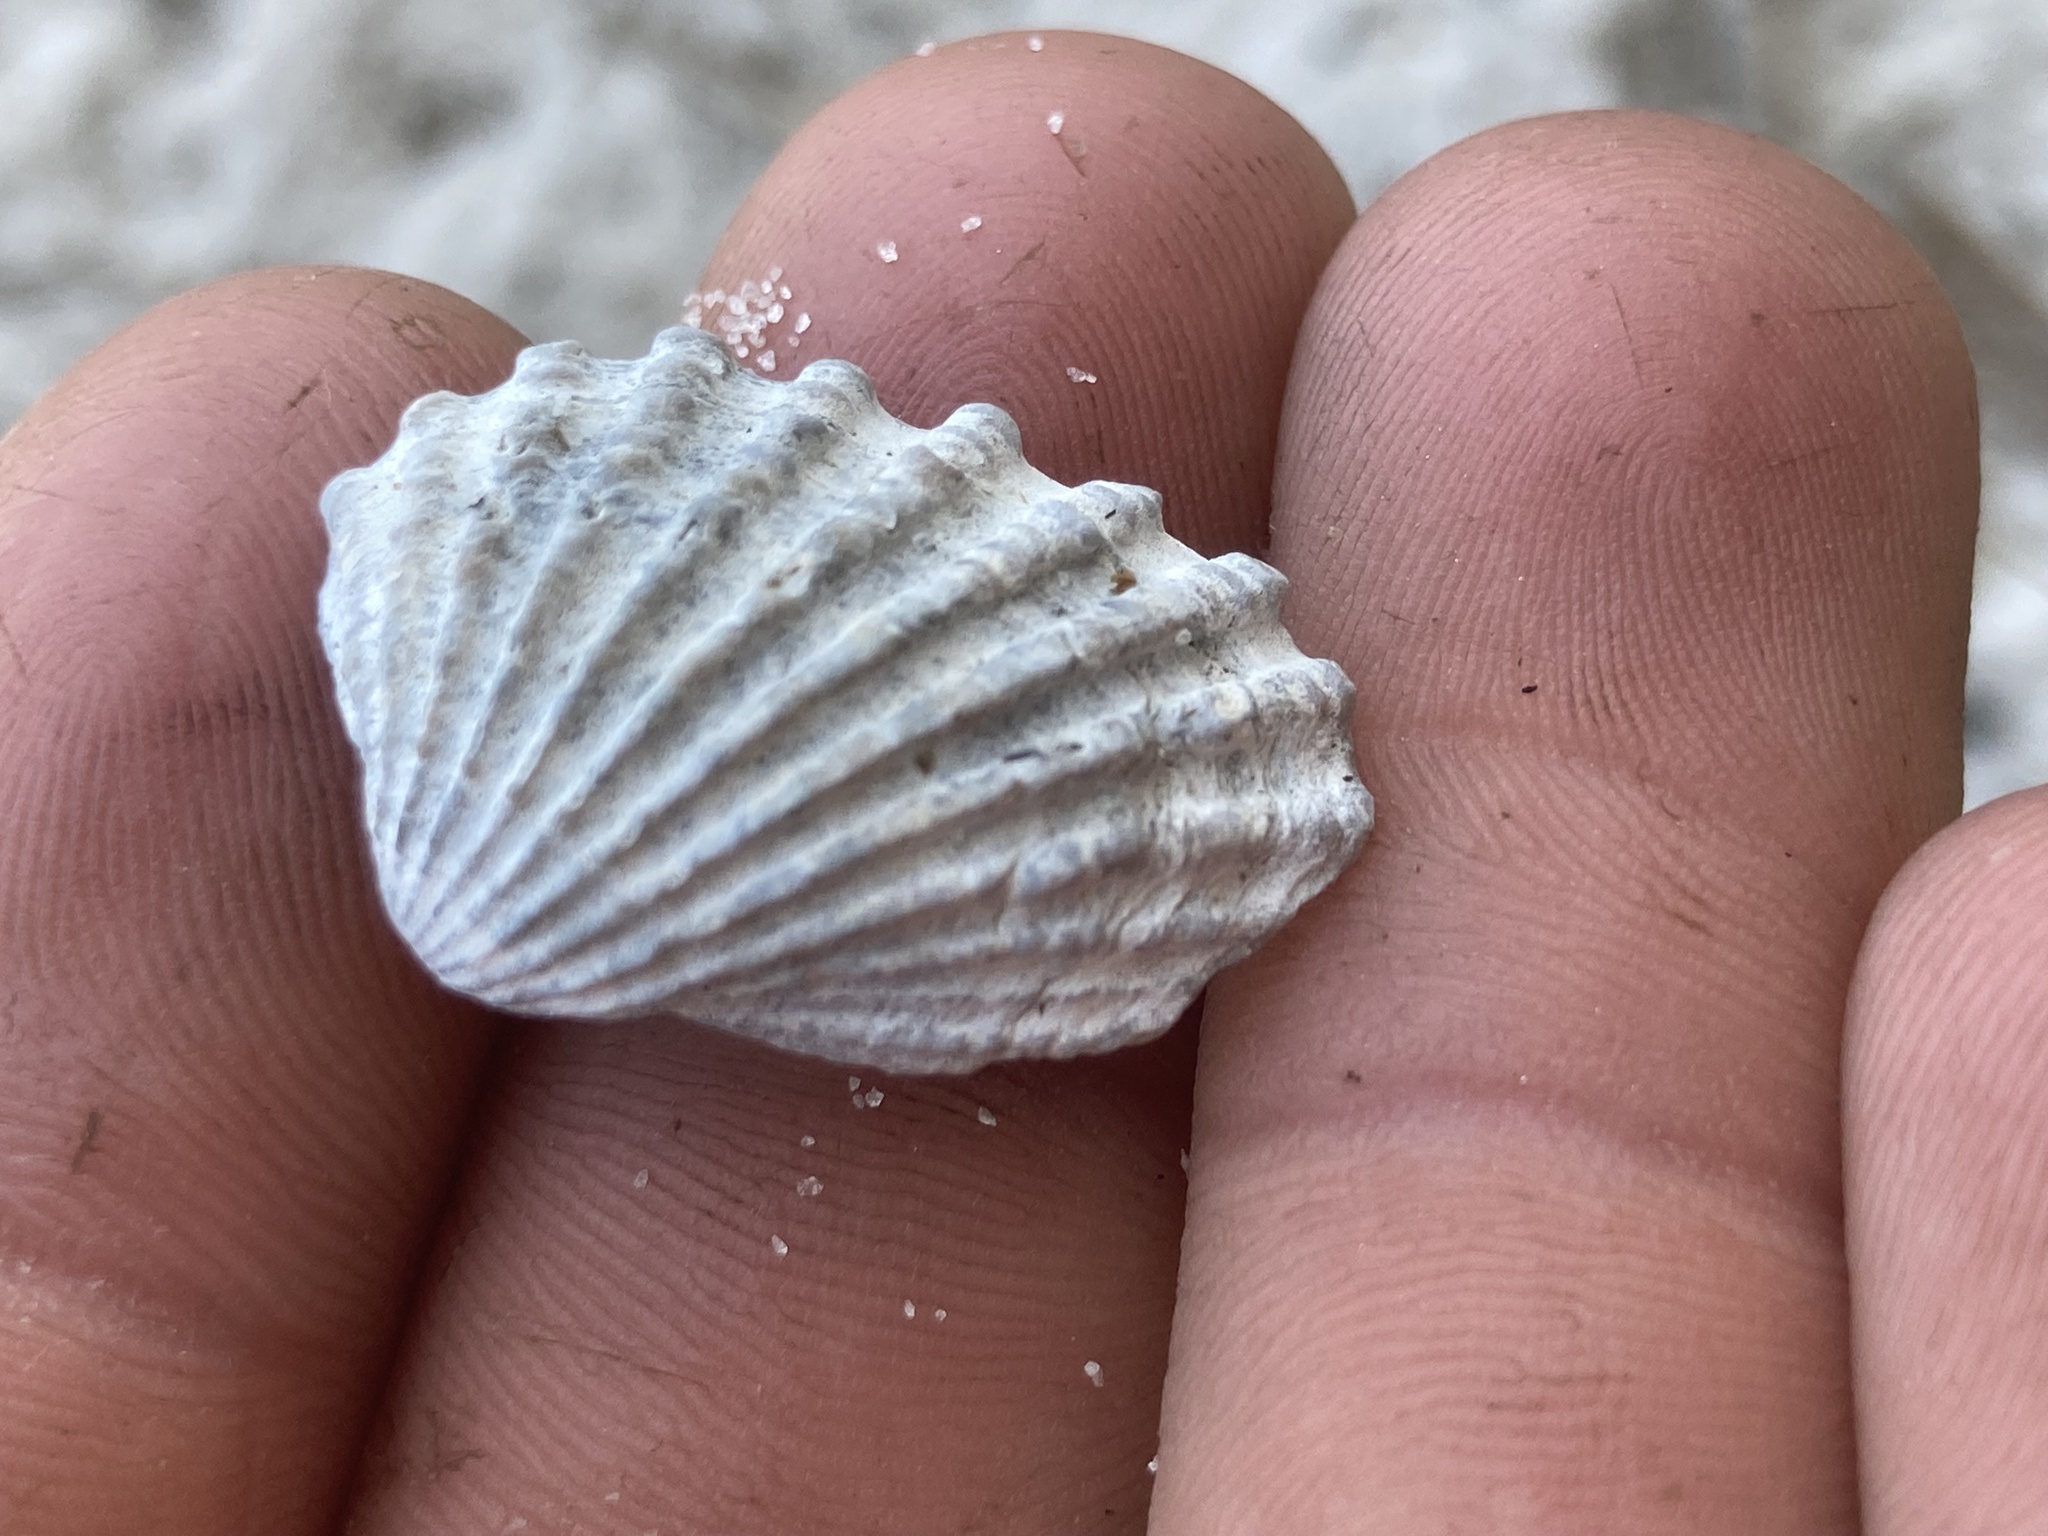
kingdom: Animalia
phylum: Mollusca
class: Bivalvia
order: Carditida
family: Carditidae
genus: Cardites
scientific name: Cardites floridanus
